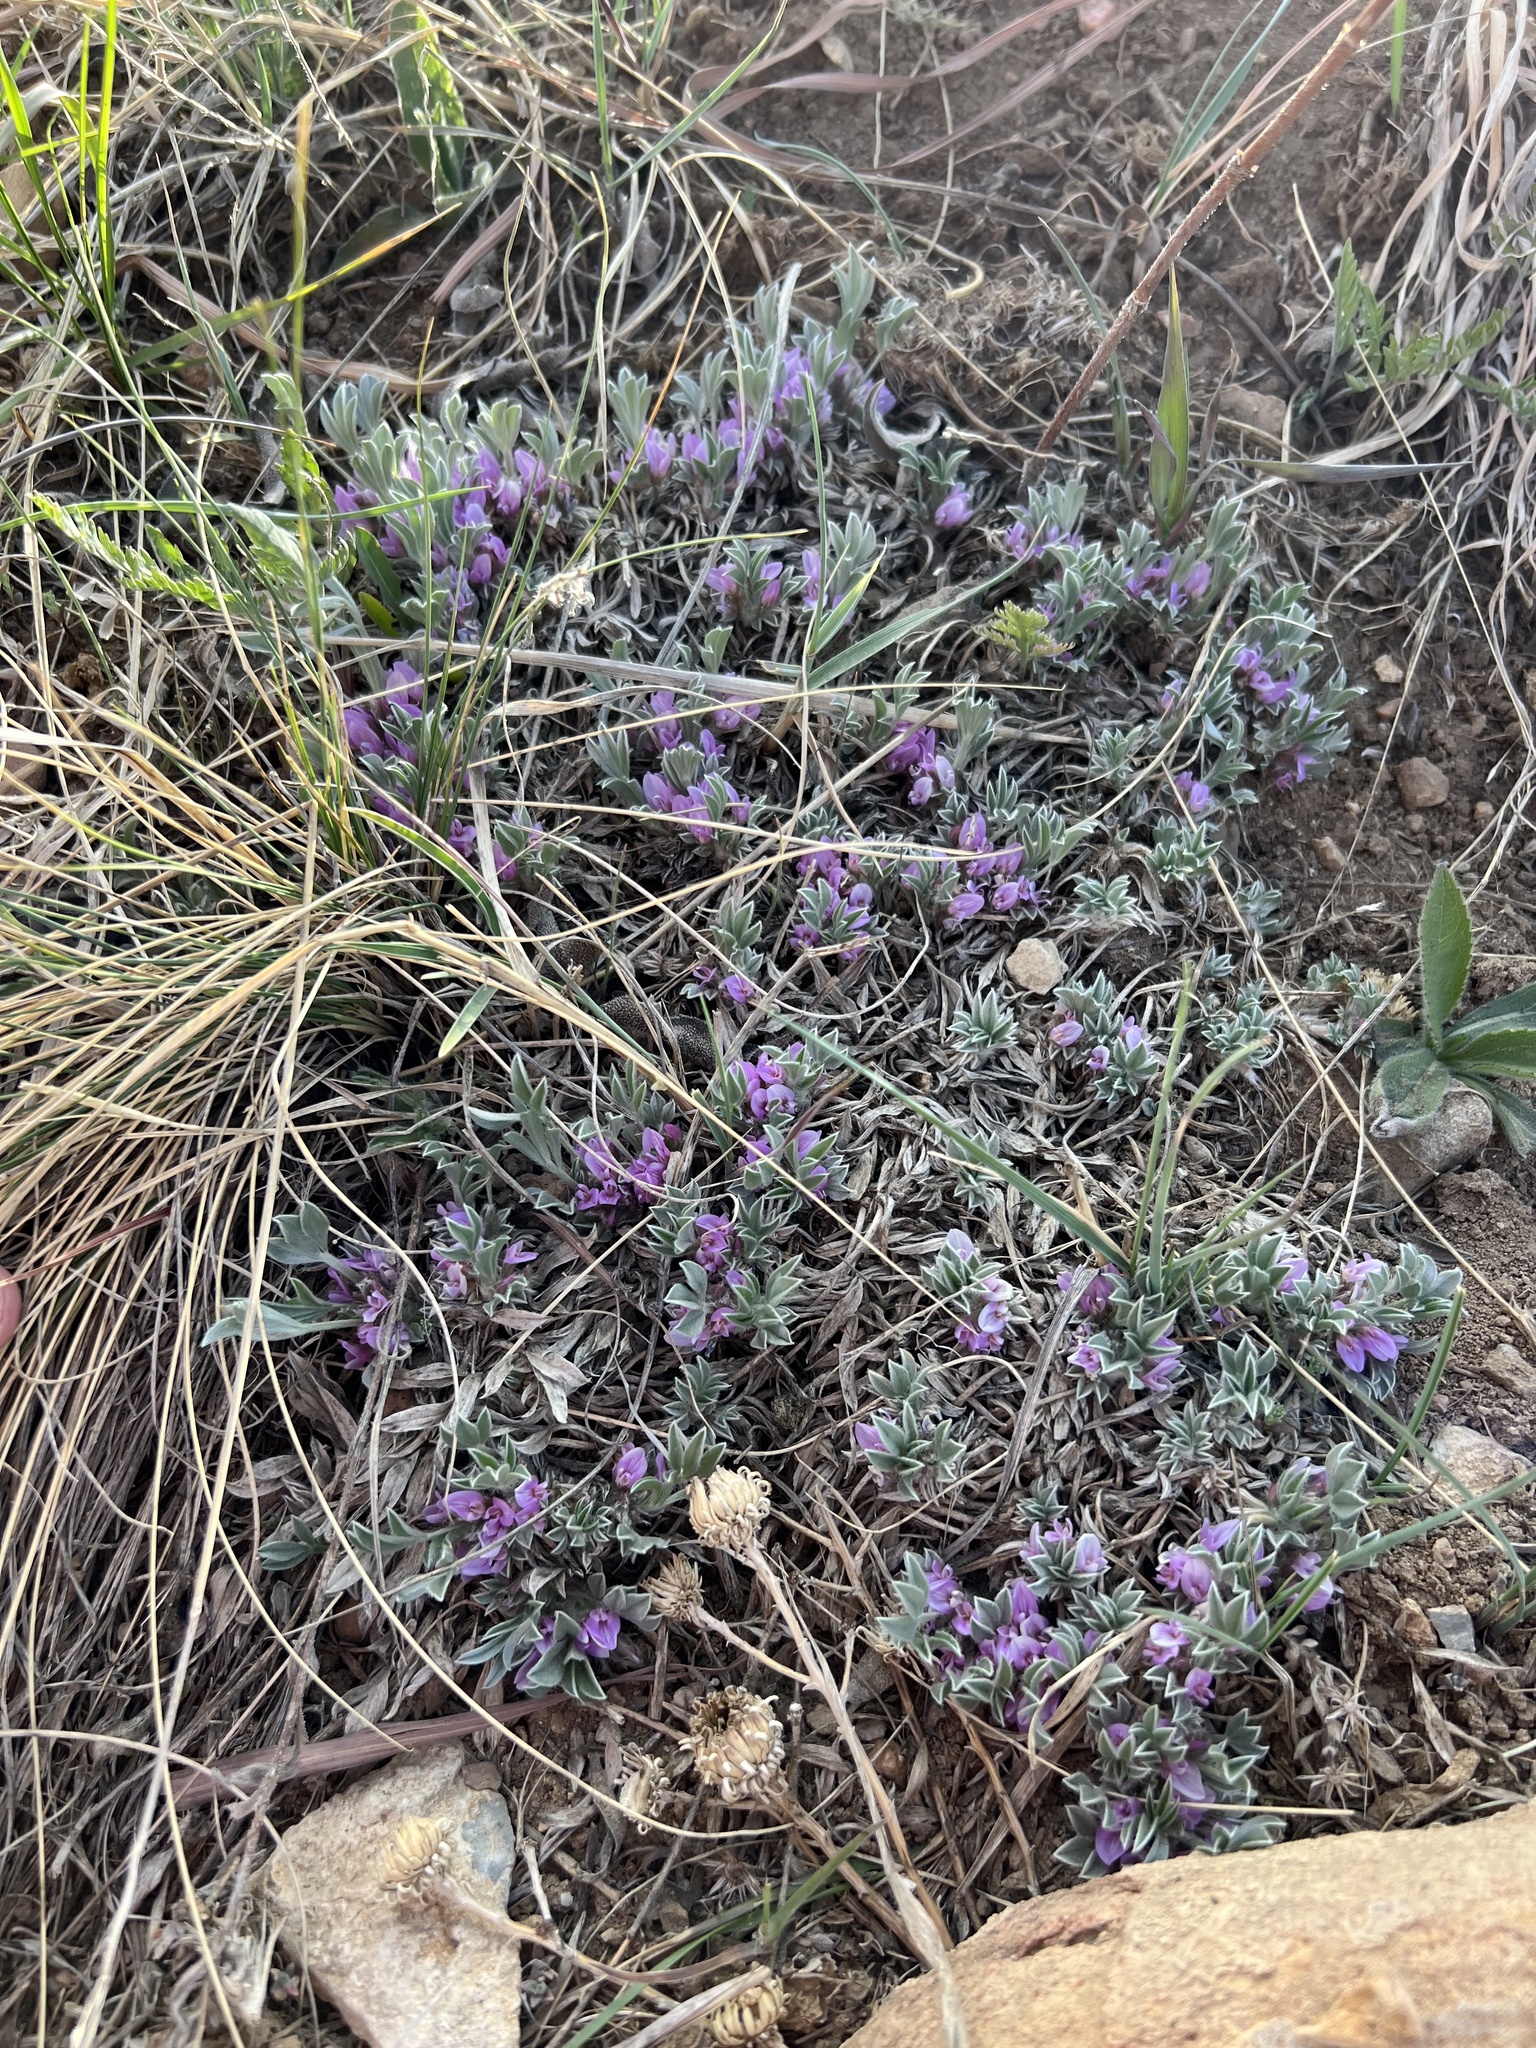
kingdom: Plantae
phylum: Tracheophyta
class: Magnoliopsida
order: Fabales
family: Fabaceae
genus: Astragalus
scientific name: Astragalus tridactylicus
